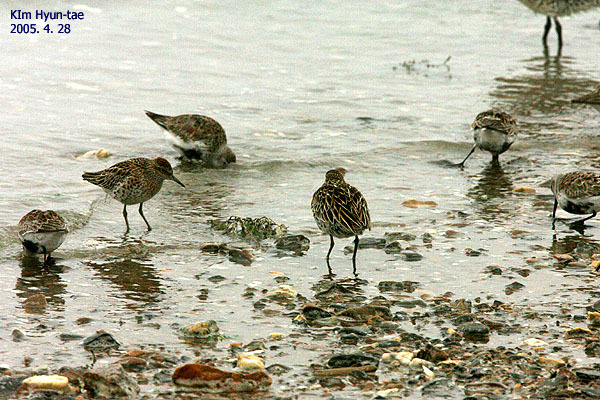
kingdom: Animalia
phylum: Chordata
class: Aves
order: Charadriiformes
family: Scolopacidae
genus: Calidris
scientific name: Calidris acuminata
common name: Sharp-tailed sandpiper
